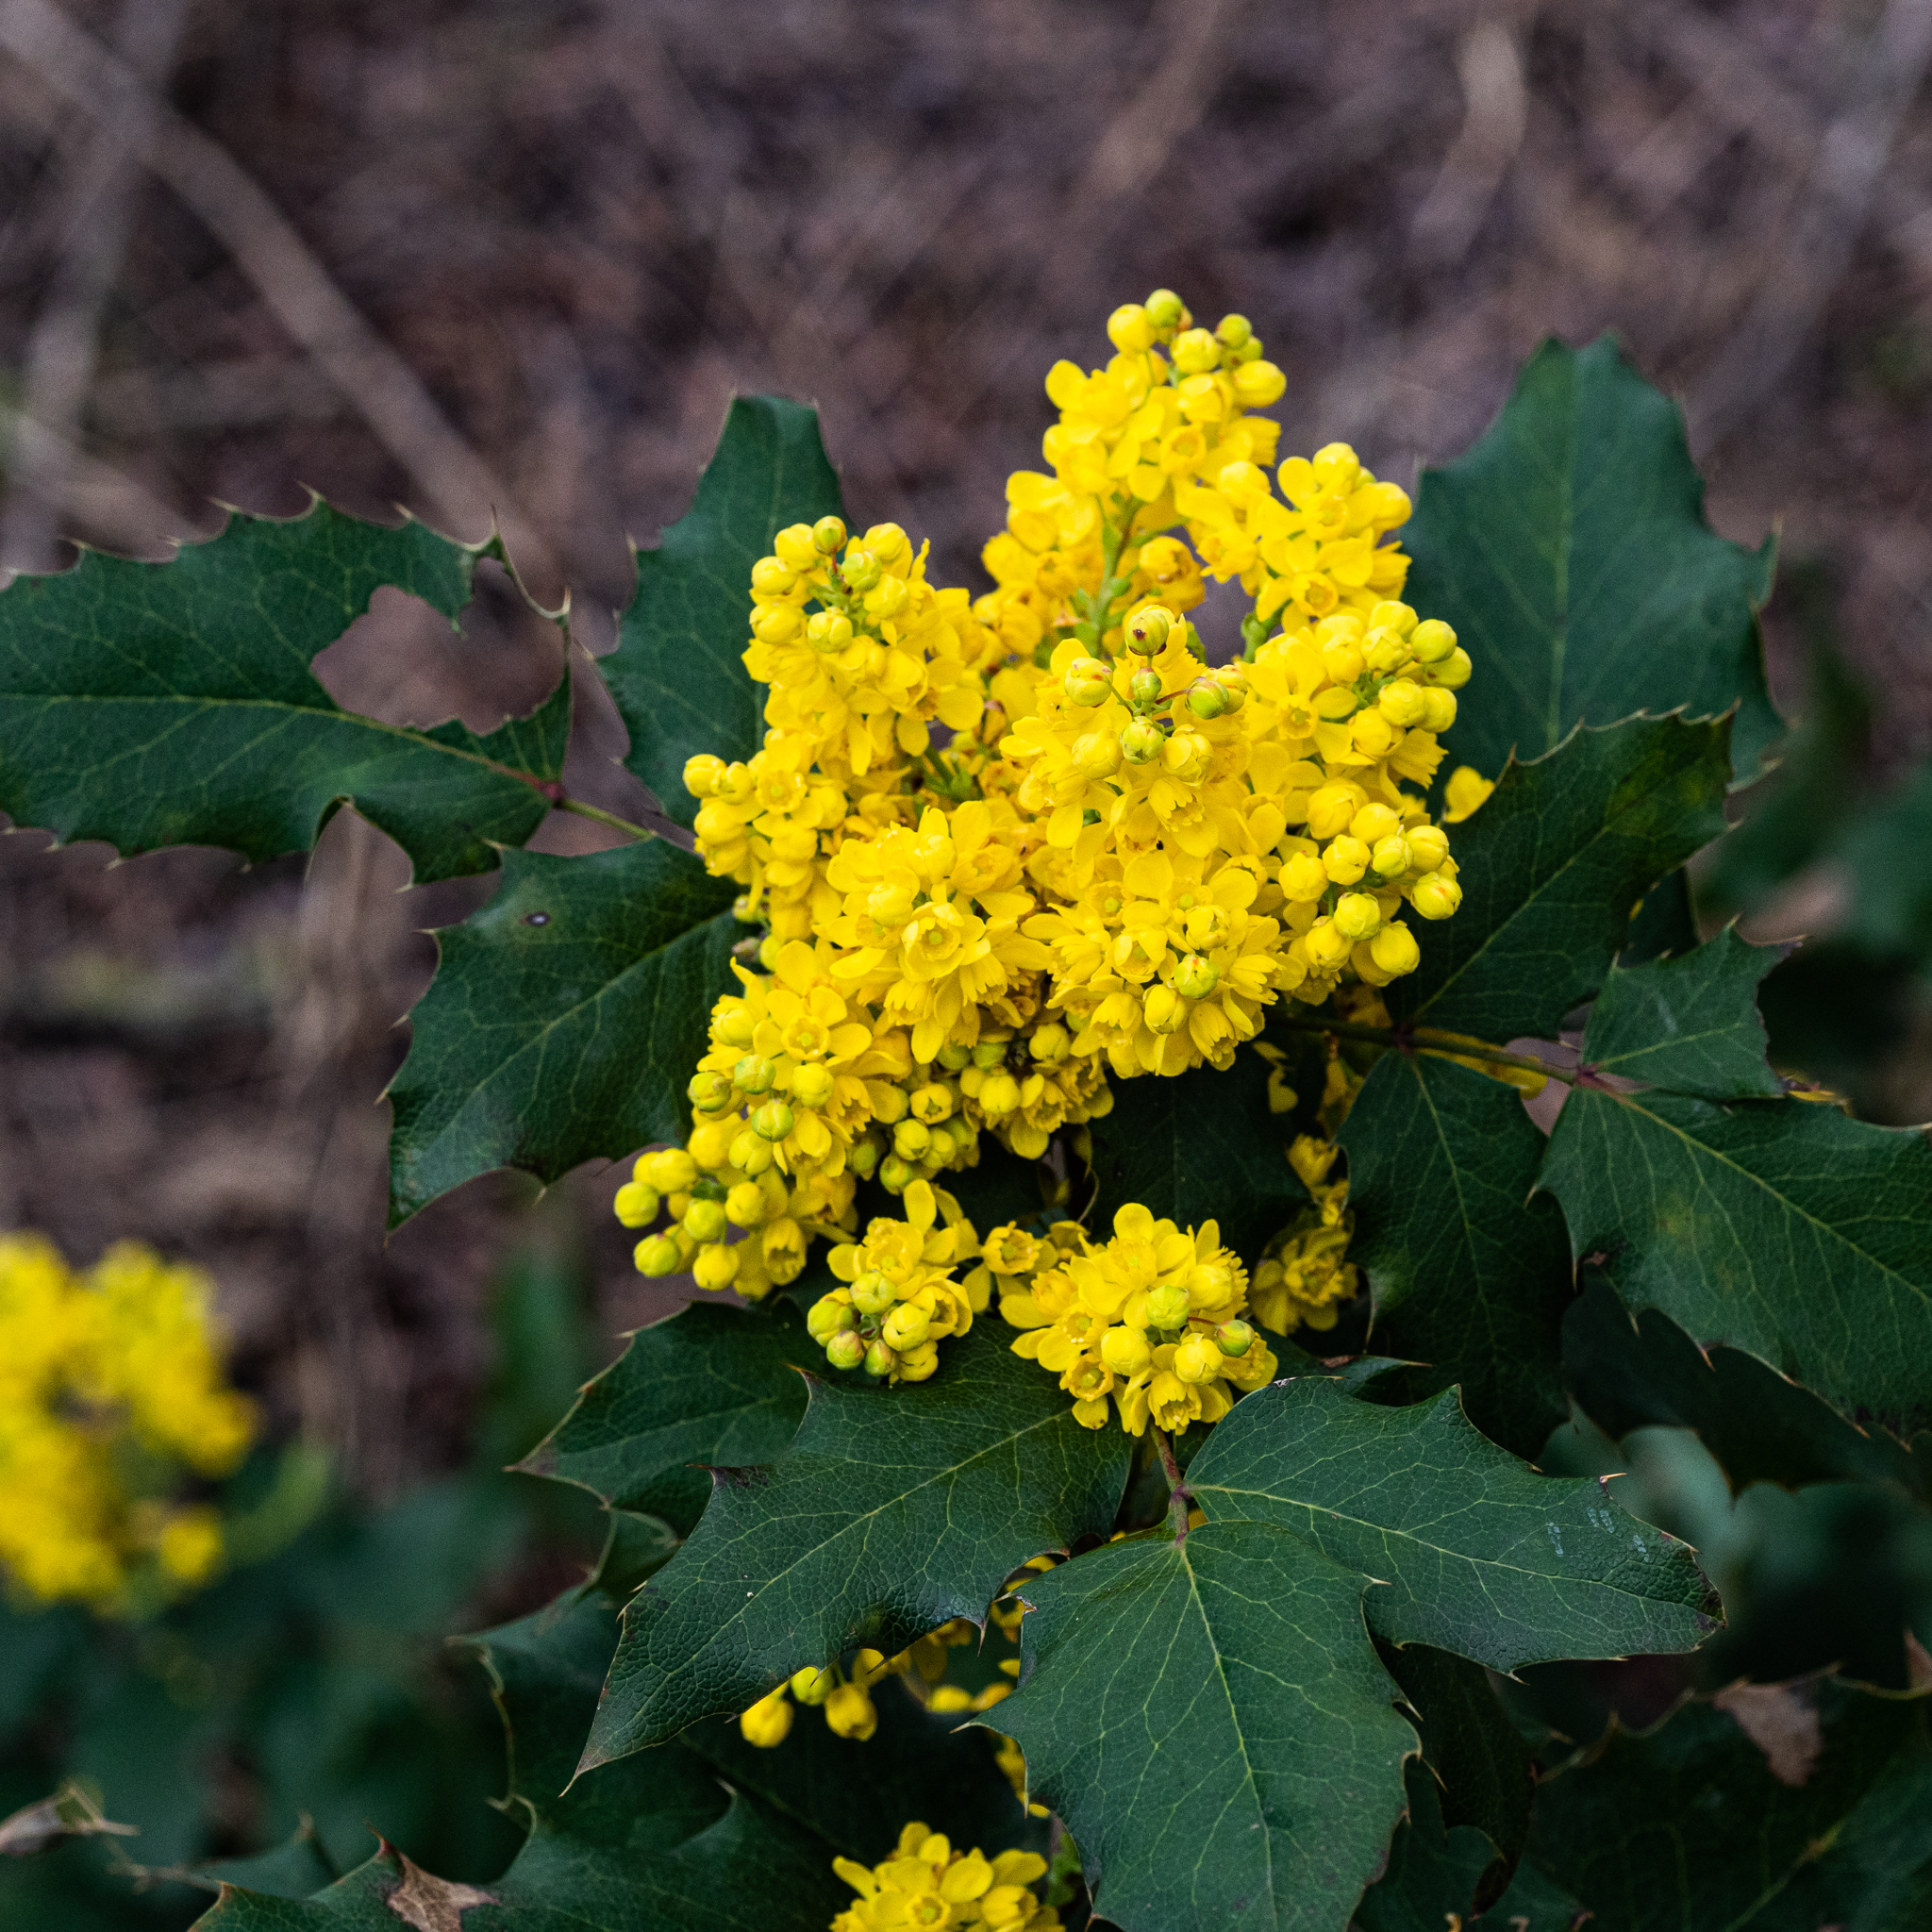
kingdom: Plantae
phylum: Tracheophyta
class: Magnoliopsida
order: Ranunculales
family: Berberidaceae
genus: Mahonia
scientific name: Mahonia aquifolium
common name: Oregon-grape
